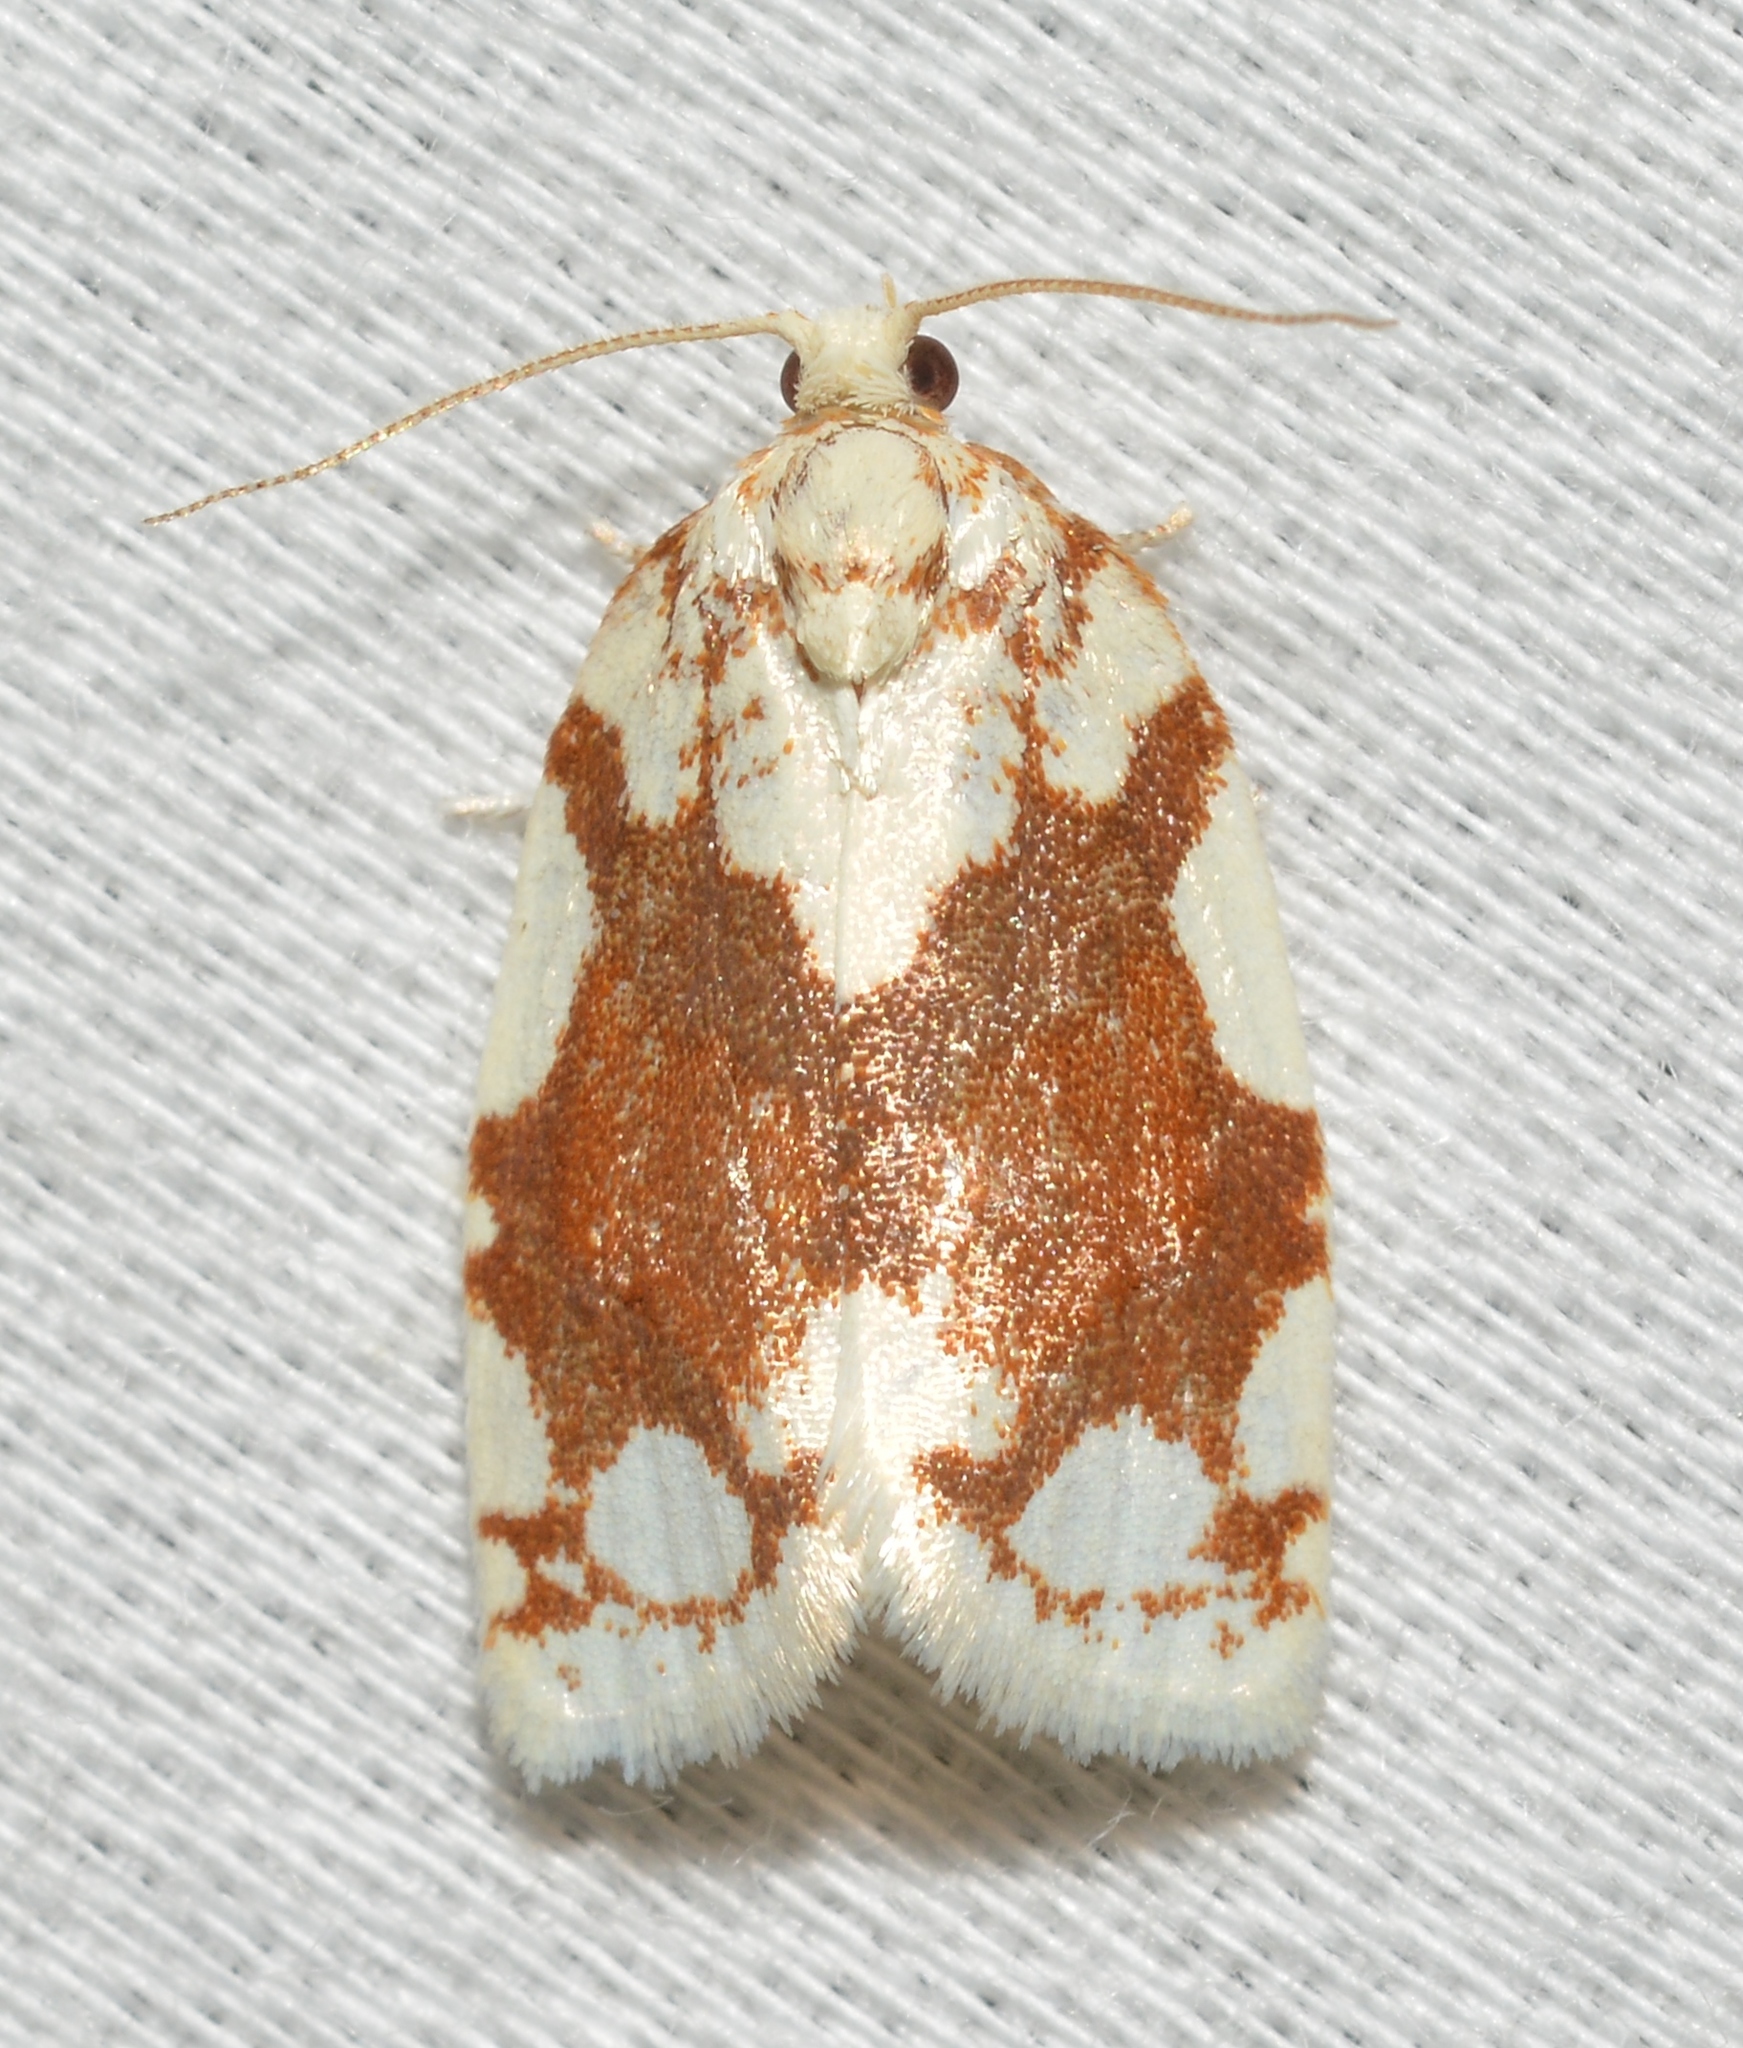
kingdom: Animalia
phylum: Arthropoda
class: Insecta
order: Lepidoptera
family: Tortricidae
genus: Argyrotaenia
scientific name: Argyrotaenia alisellana
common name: White-spotted leafroller moth
